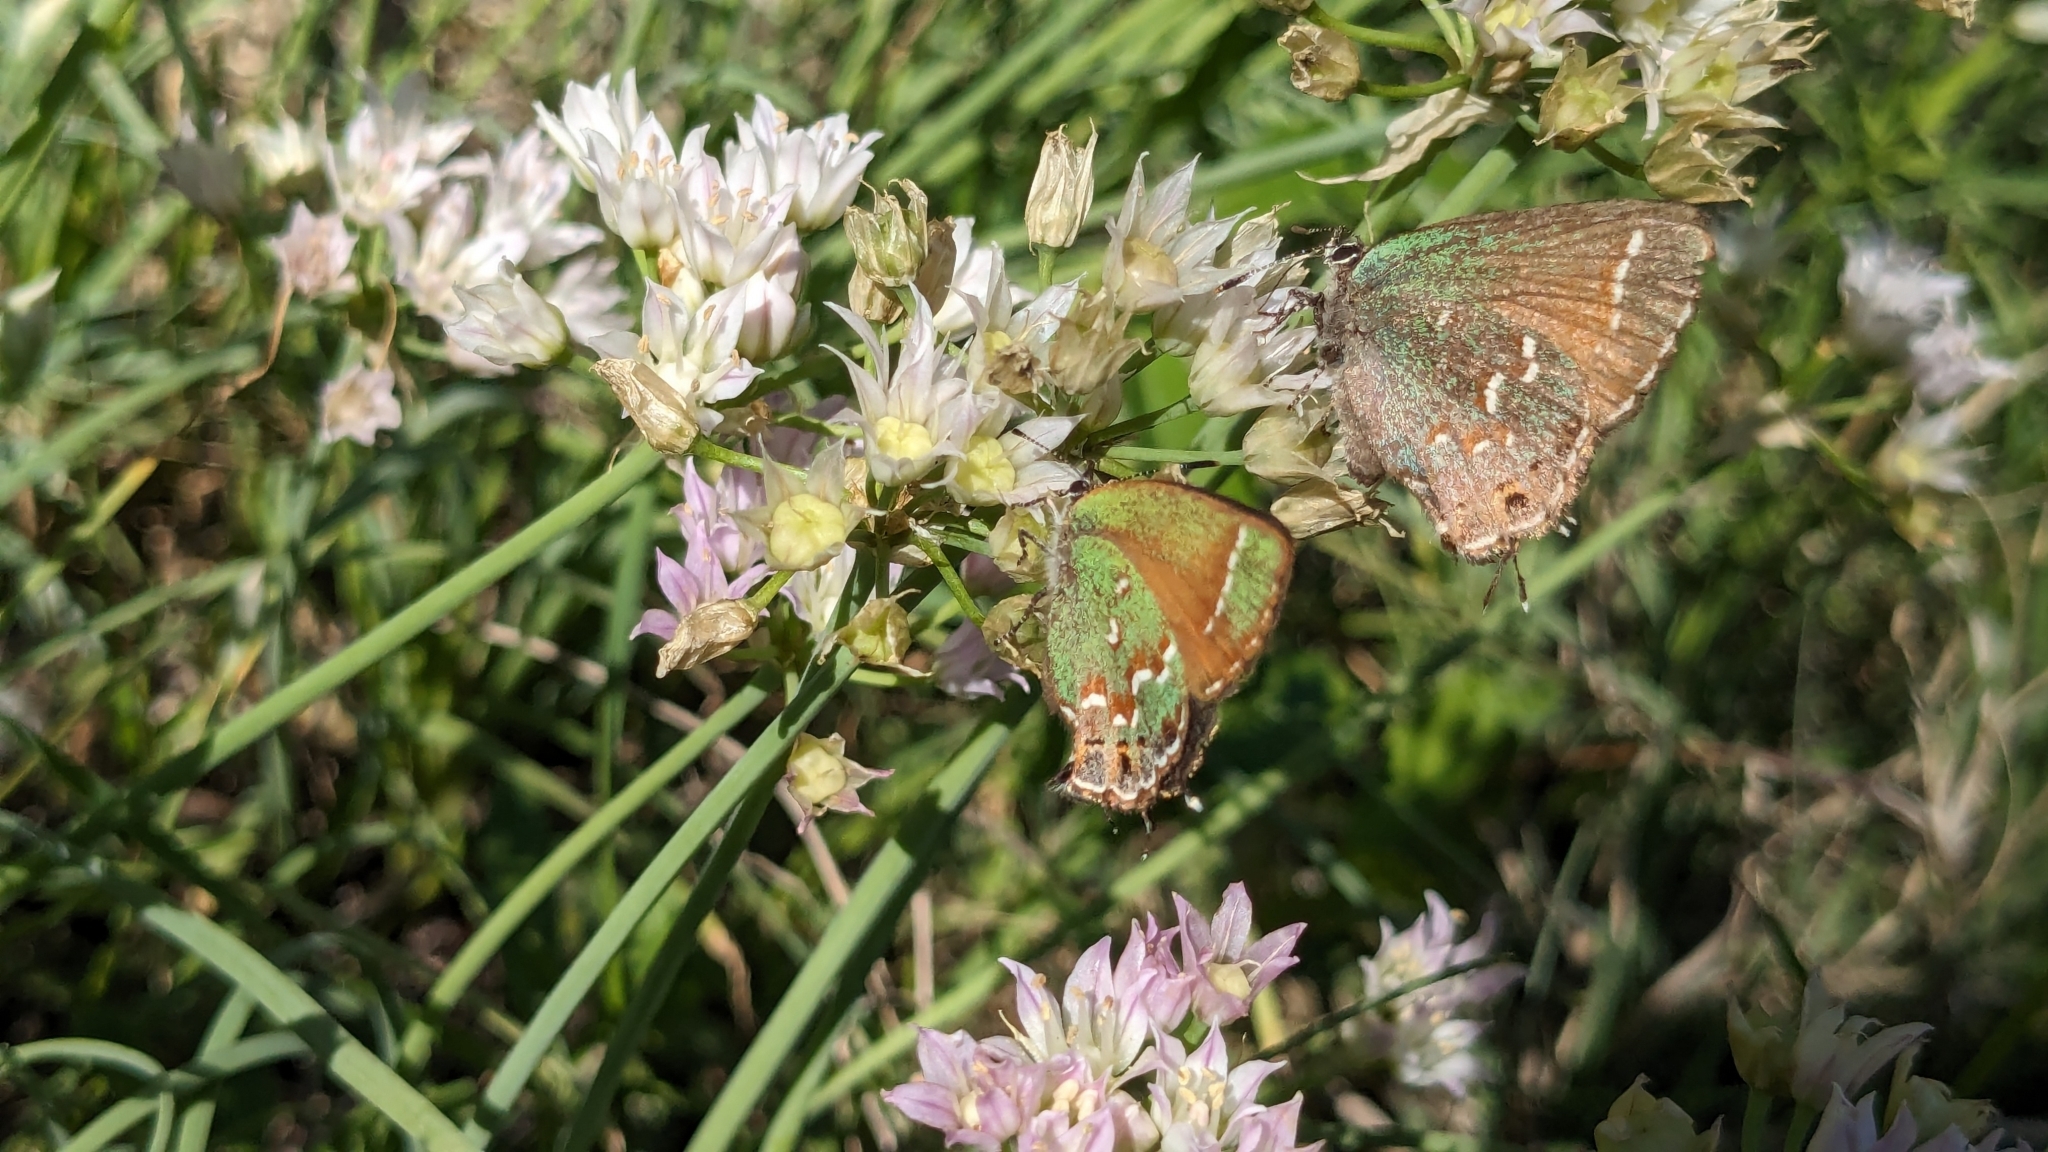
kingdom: Animalia
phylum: Arthropoda
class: Insecta
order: Lepidoptera
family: Lycaenidae
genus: Mitoura
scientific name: Mitoura gryneus
